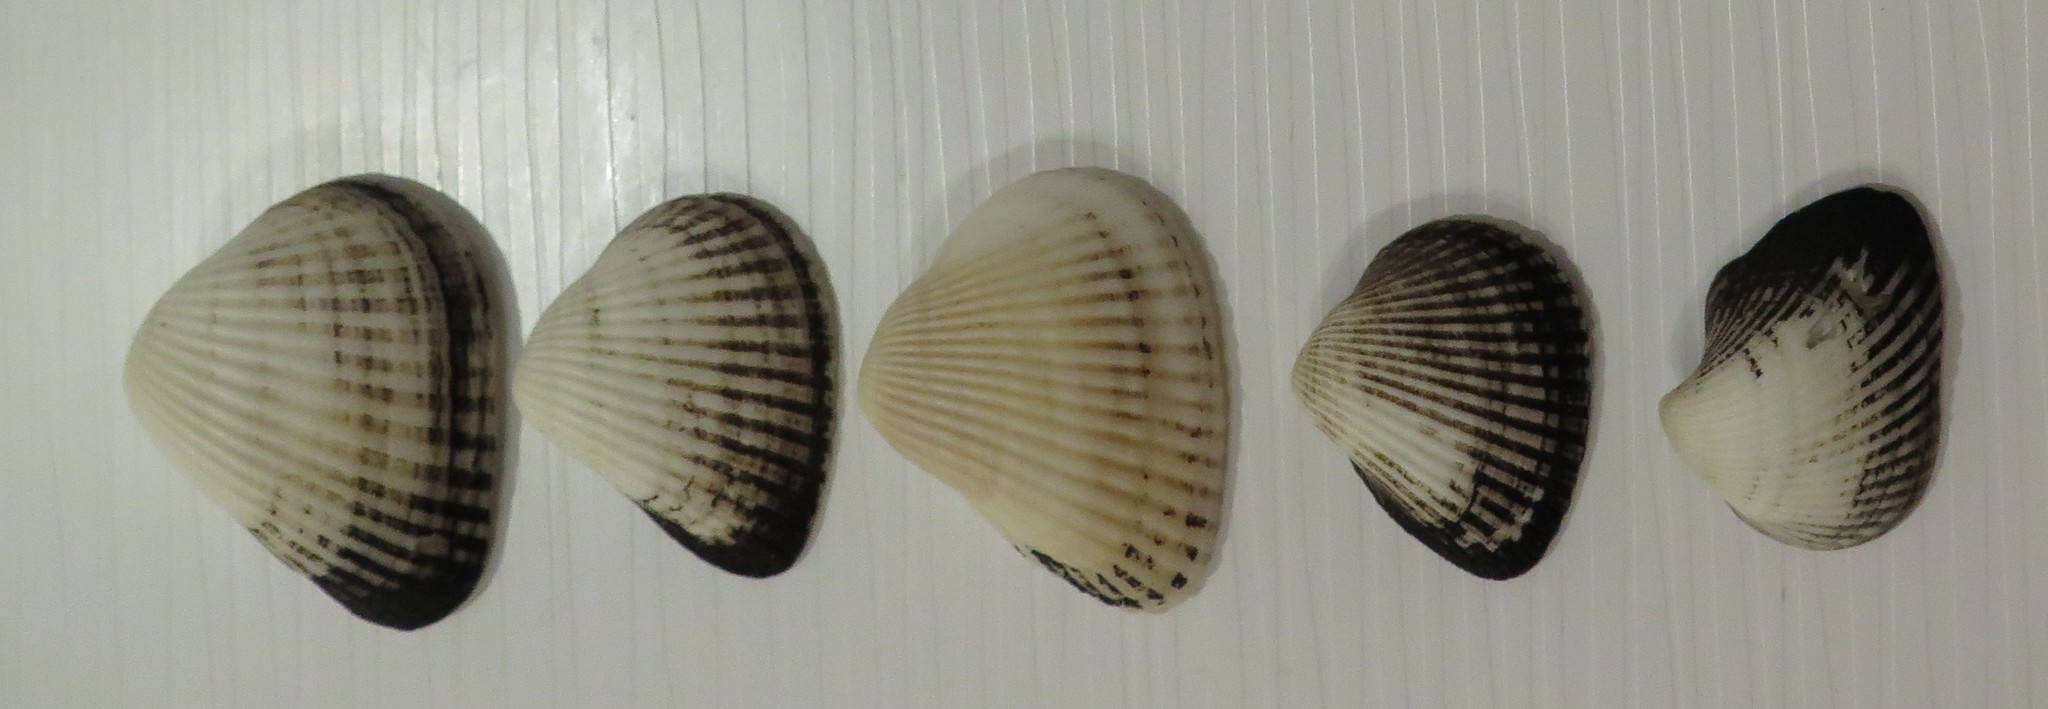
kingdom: Animalia
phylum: Mollusca
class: Bivalvia
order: Arcida
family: Noetiidae
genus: Noetia
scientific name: Noetia ponderosa
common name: Ponderous ark
